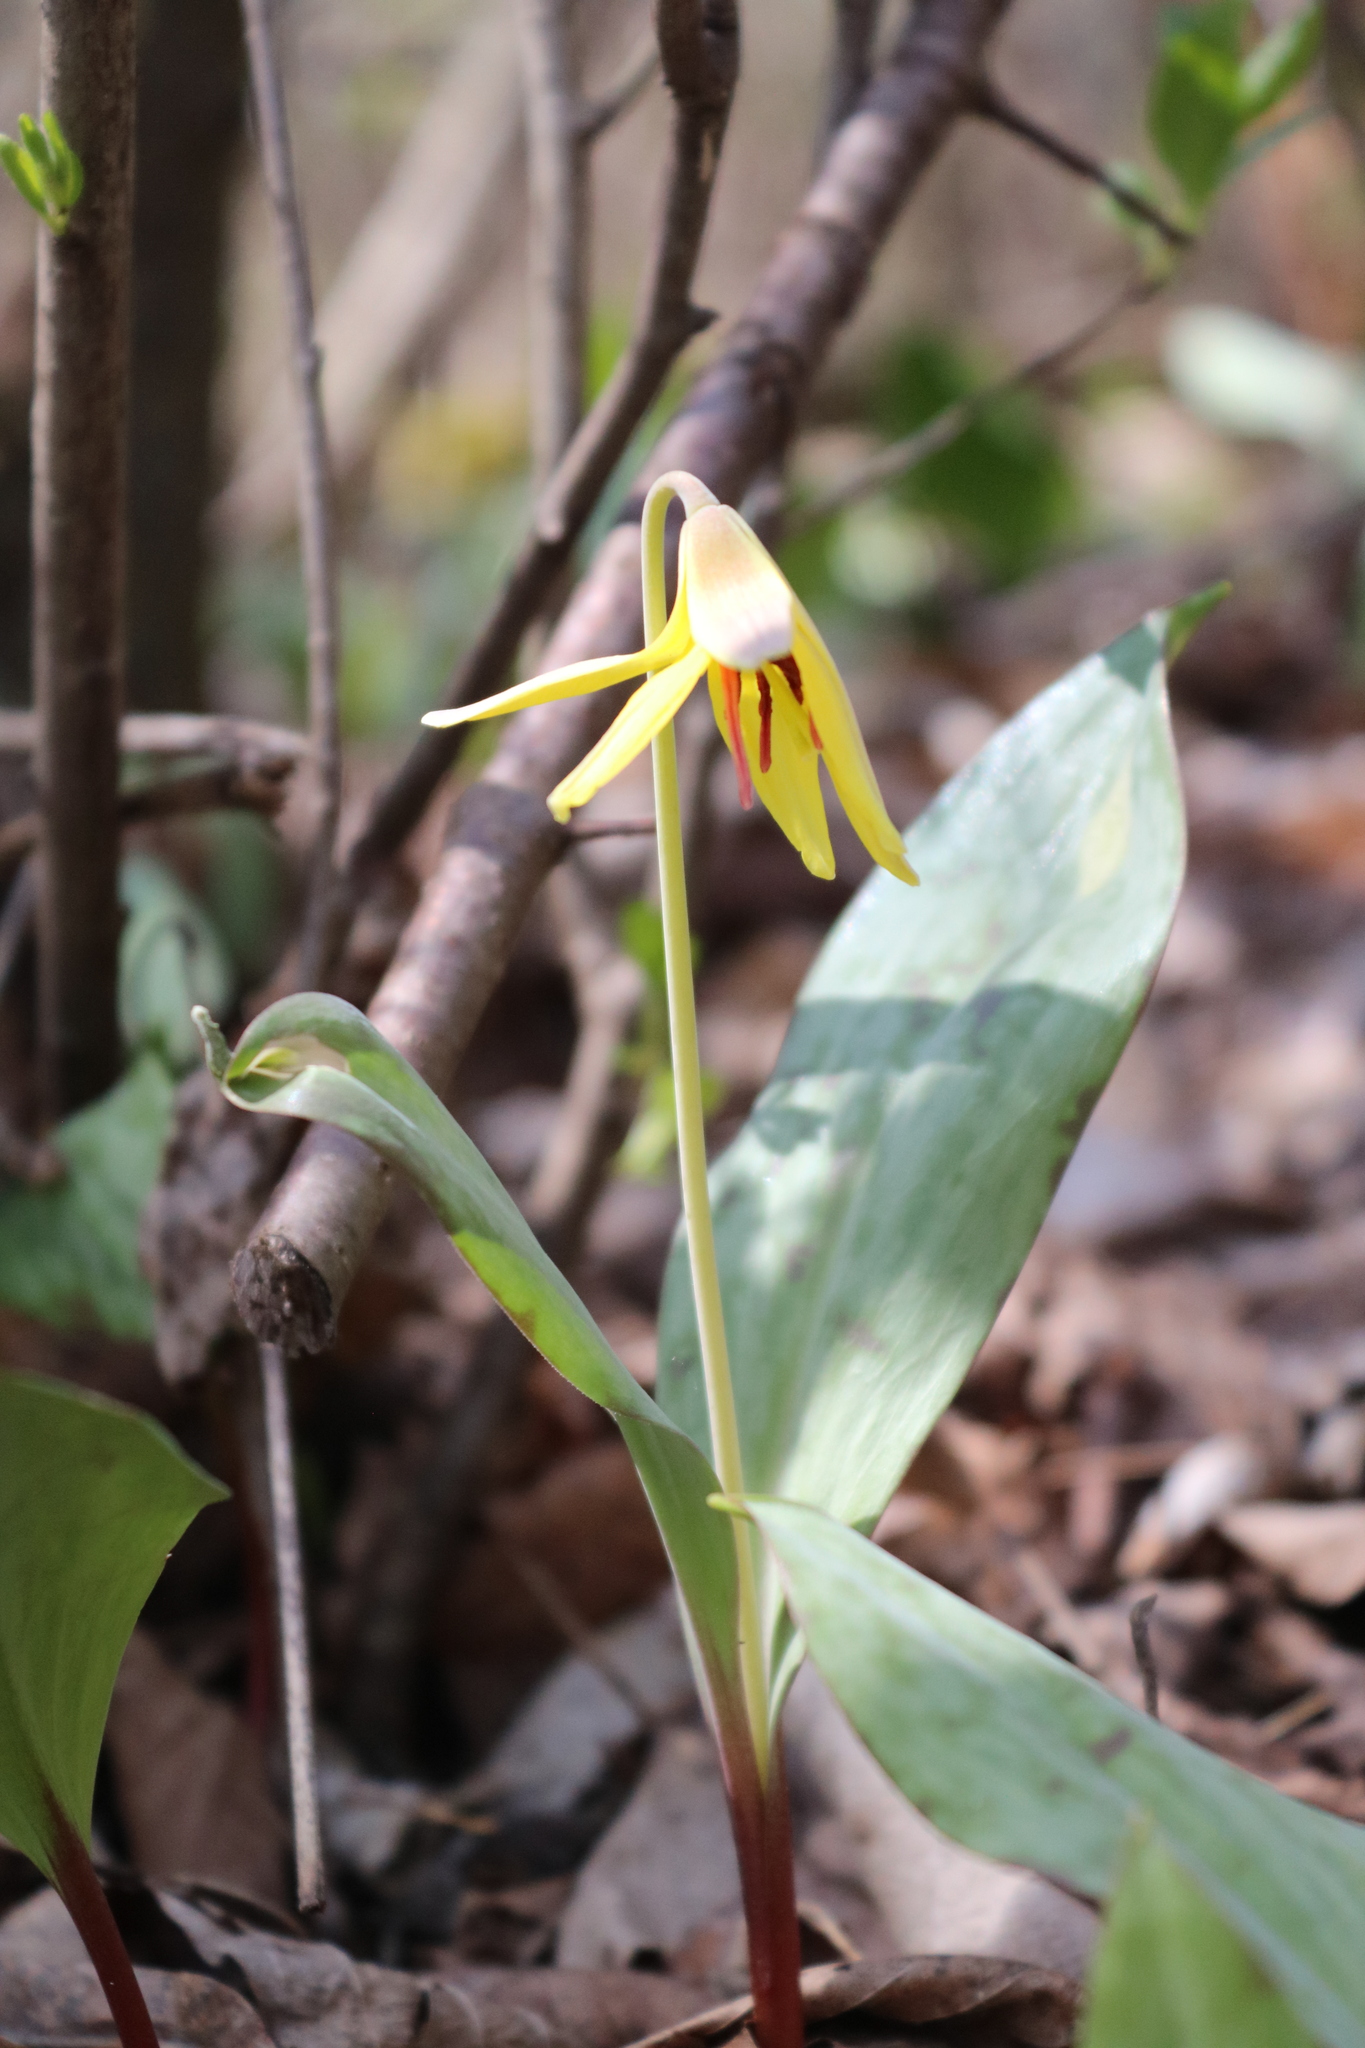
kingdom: Plantae
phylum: Tracheophyta
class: Liliopsida
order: Liliales
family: Liliaceae
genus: Erythronium
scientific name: Erythronium americanum
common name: Yellow adder's-tongue
